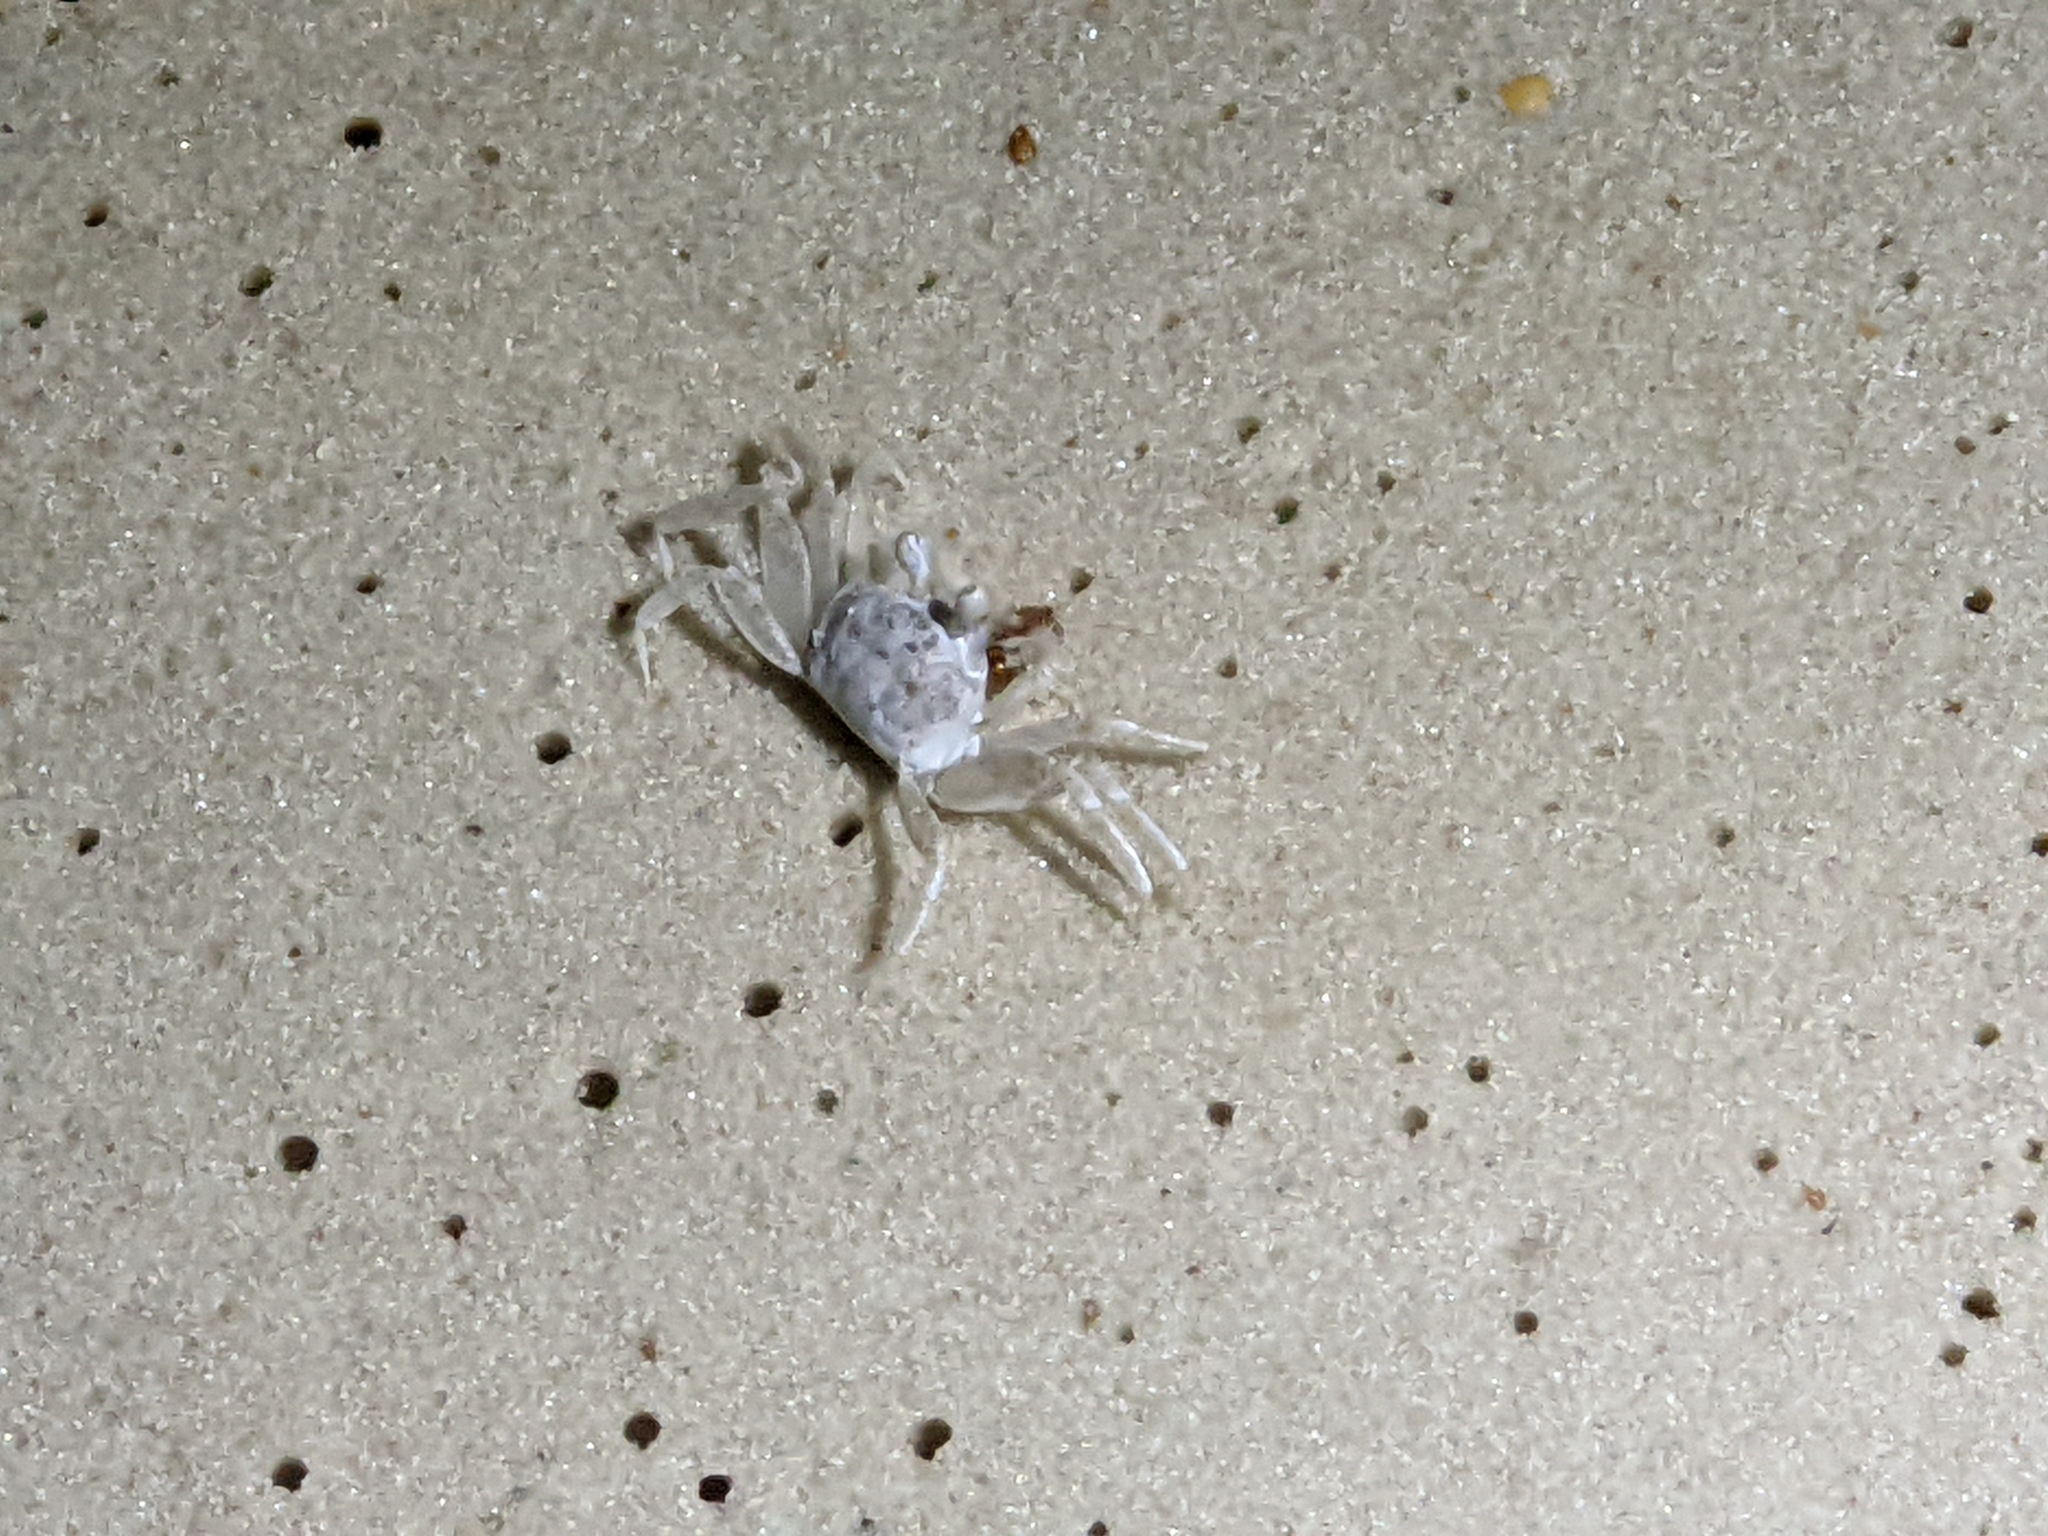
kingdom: Animalia
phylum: Arthropoda
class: Malacostraca
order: Decapoda
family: Ocypodidae
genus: Ocypode
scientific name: Ocypode quadrata
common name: Ghost crab
